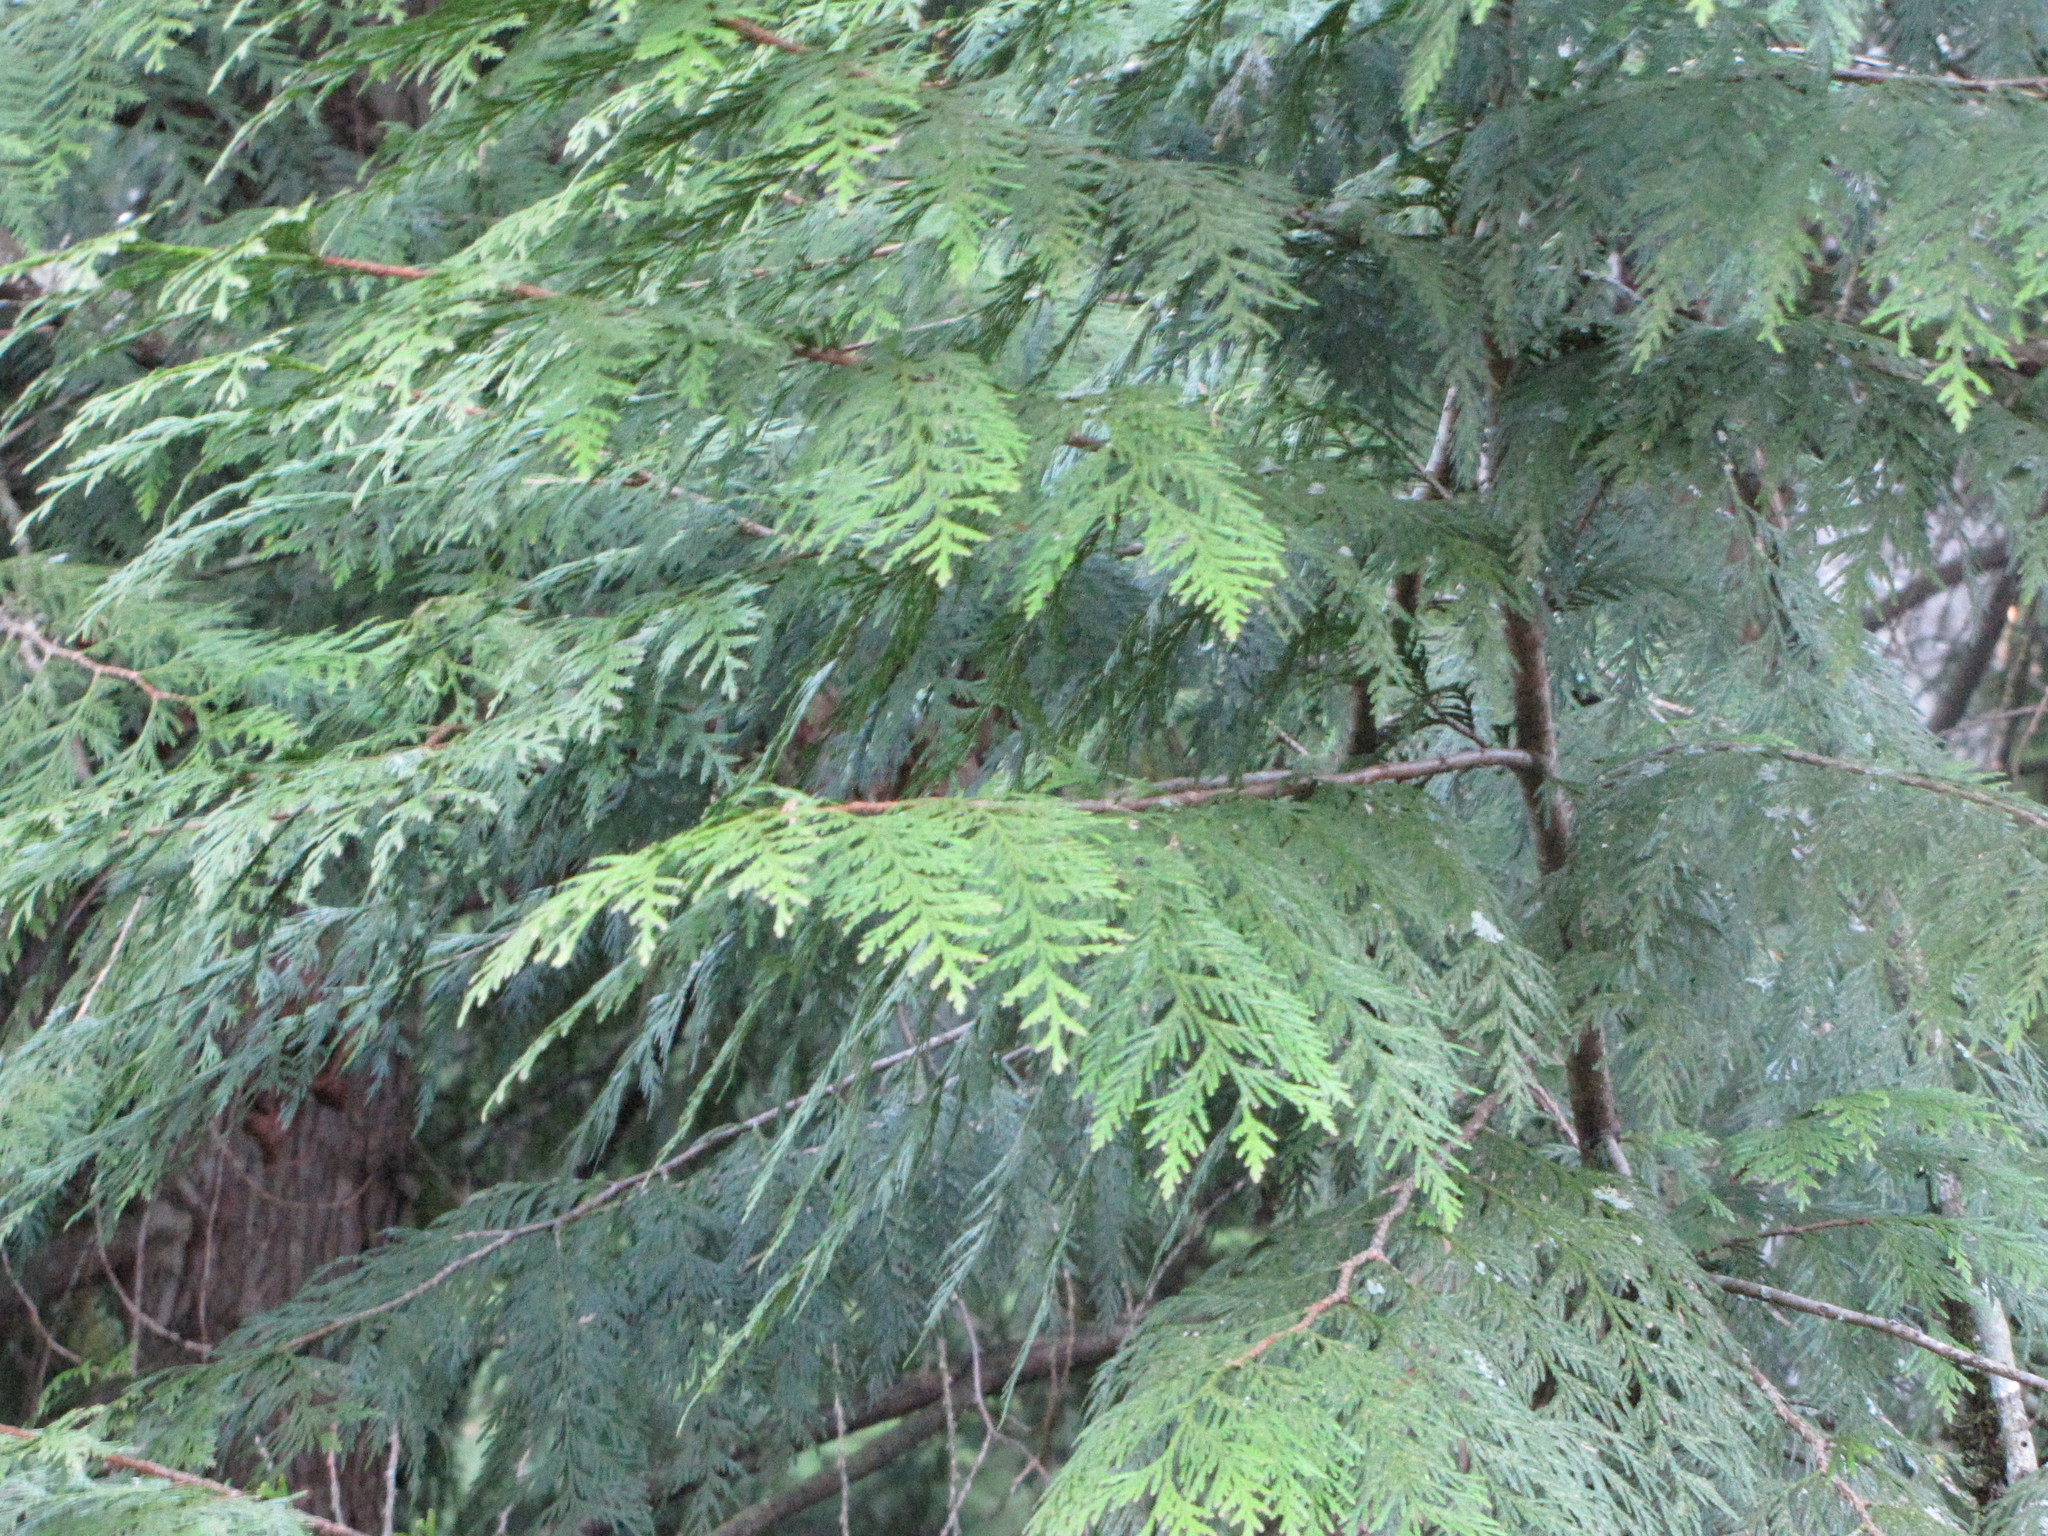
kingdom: Plantae
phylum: Tracheophyta
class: Pinopsida
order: Pinales
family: Cupressaceae
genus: Thuja
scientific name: Thuja plicata
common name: Western red-cedar
